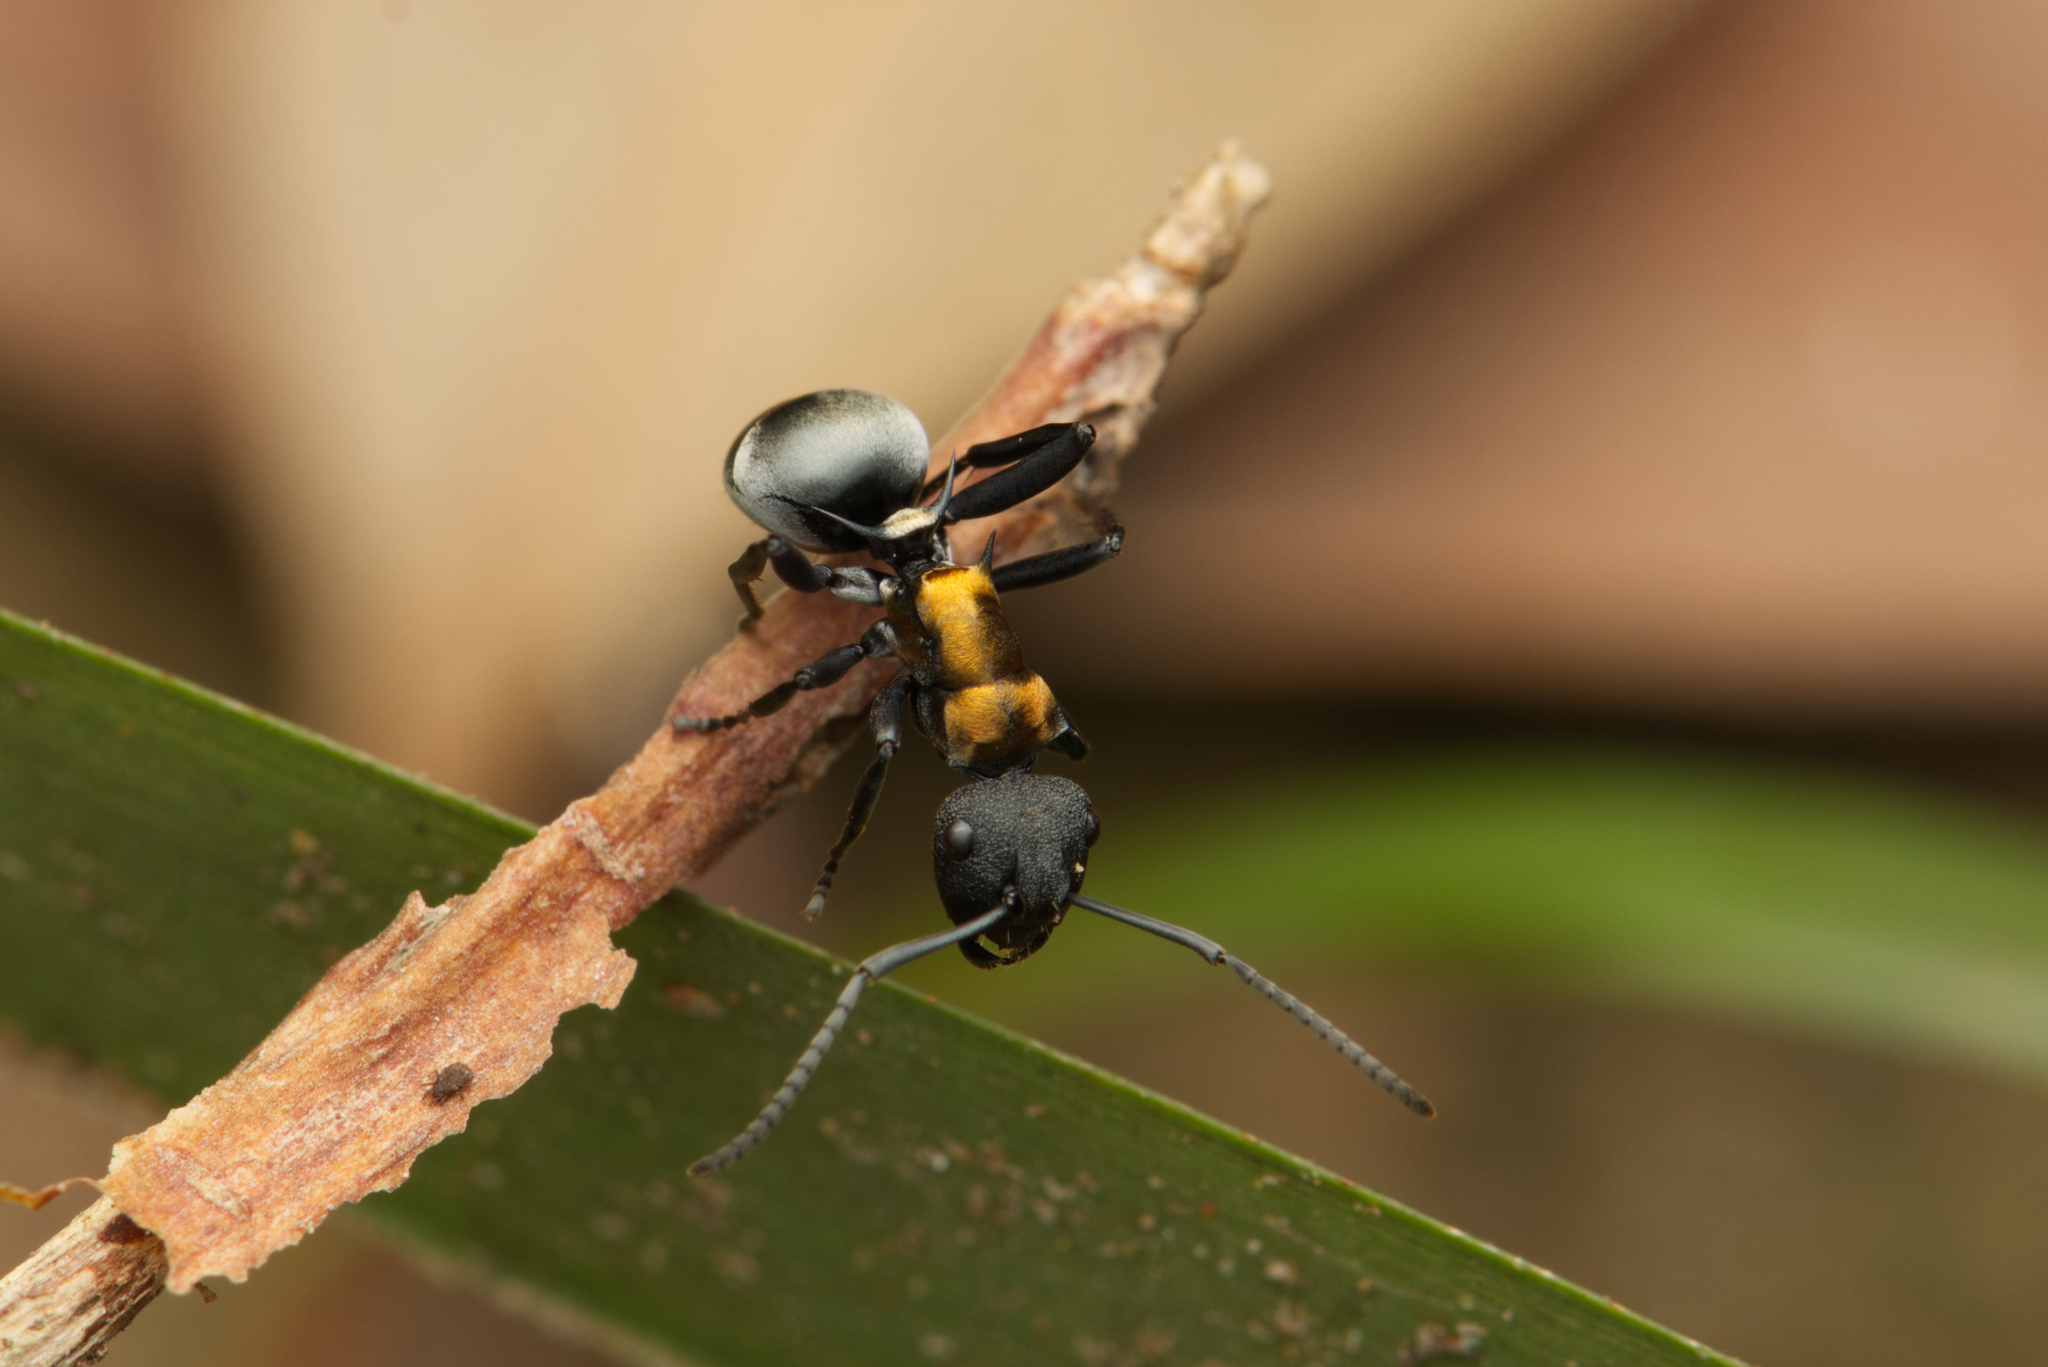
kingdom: Animalia
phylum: Arthropoda
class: Insecta
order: Hymenoptera
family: Formicidae
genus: Polyrhachis
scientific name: Polyrhachis ornata
